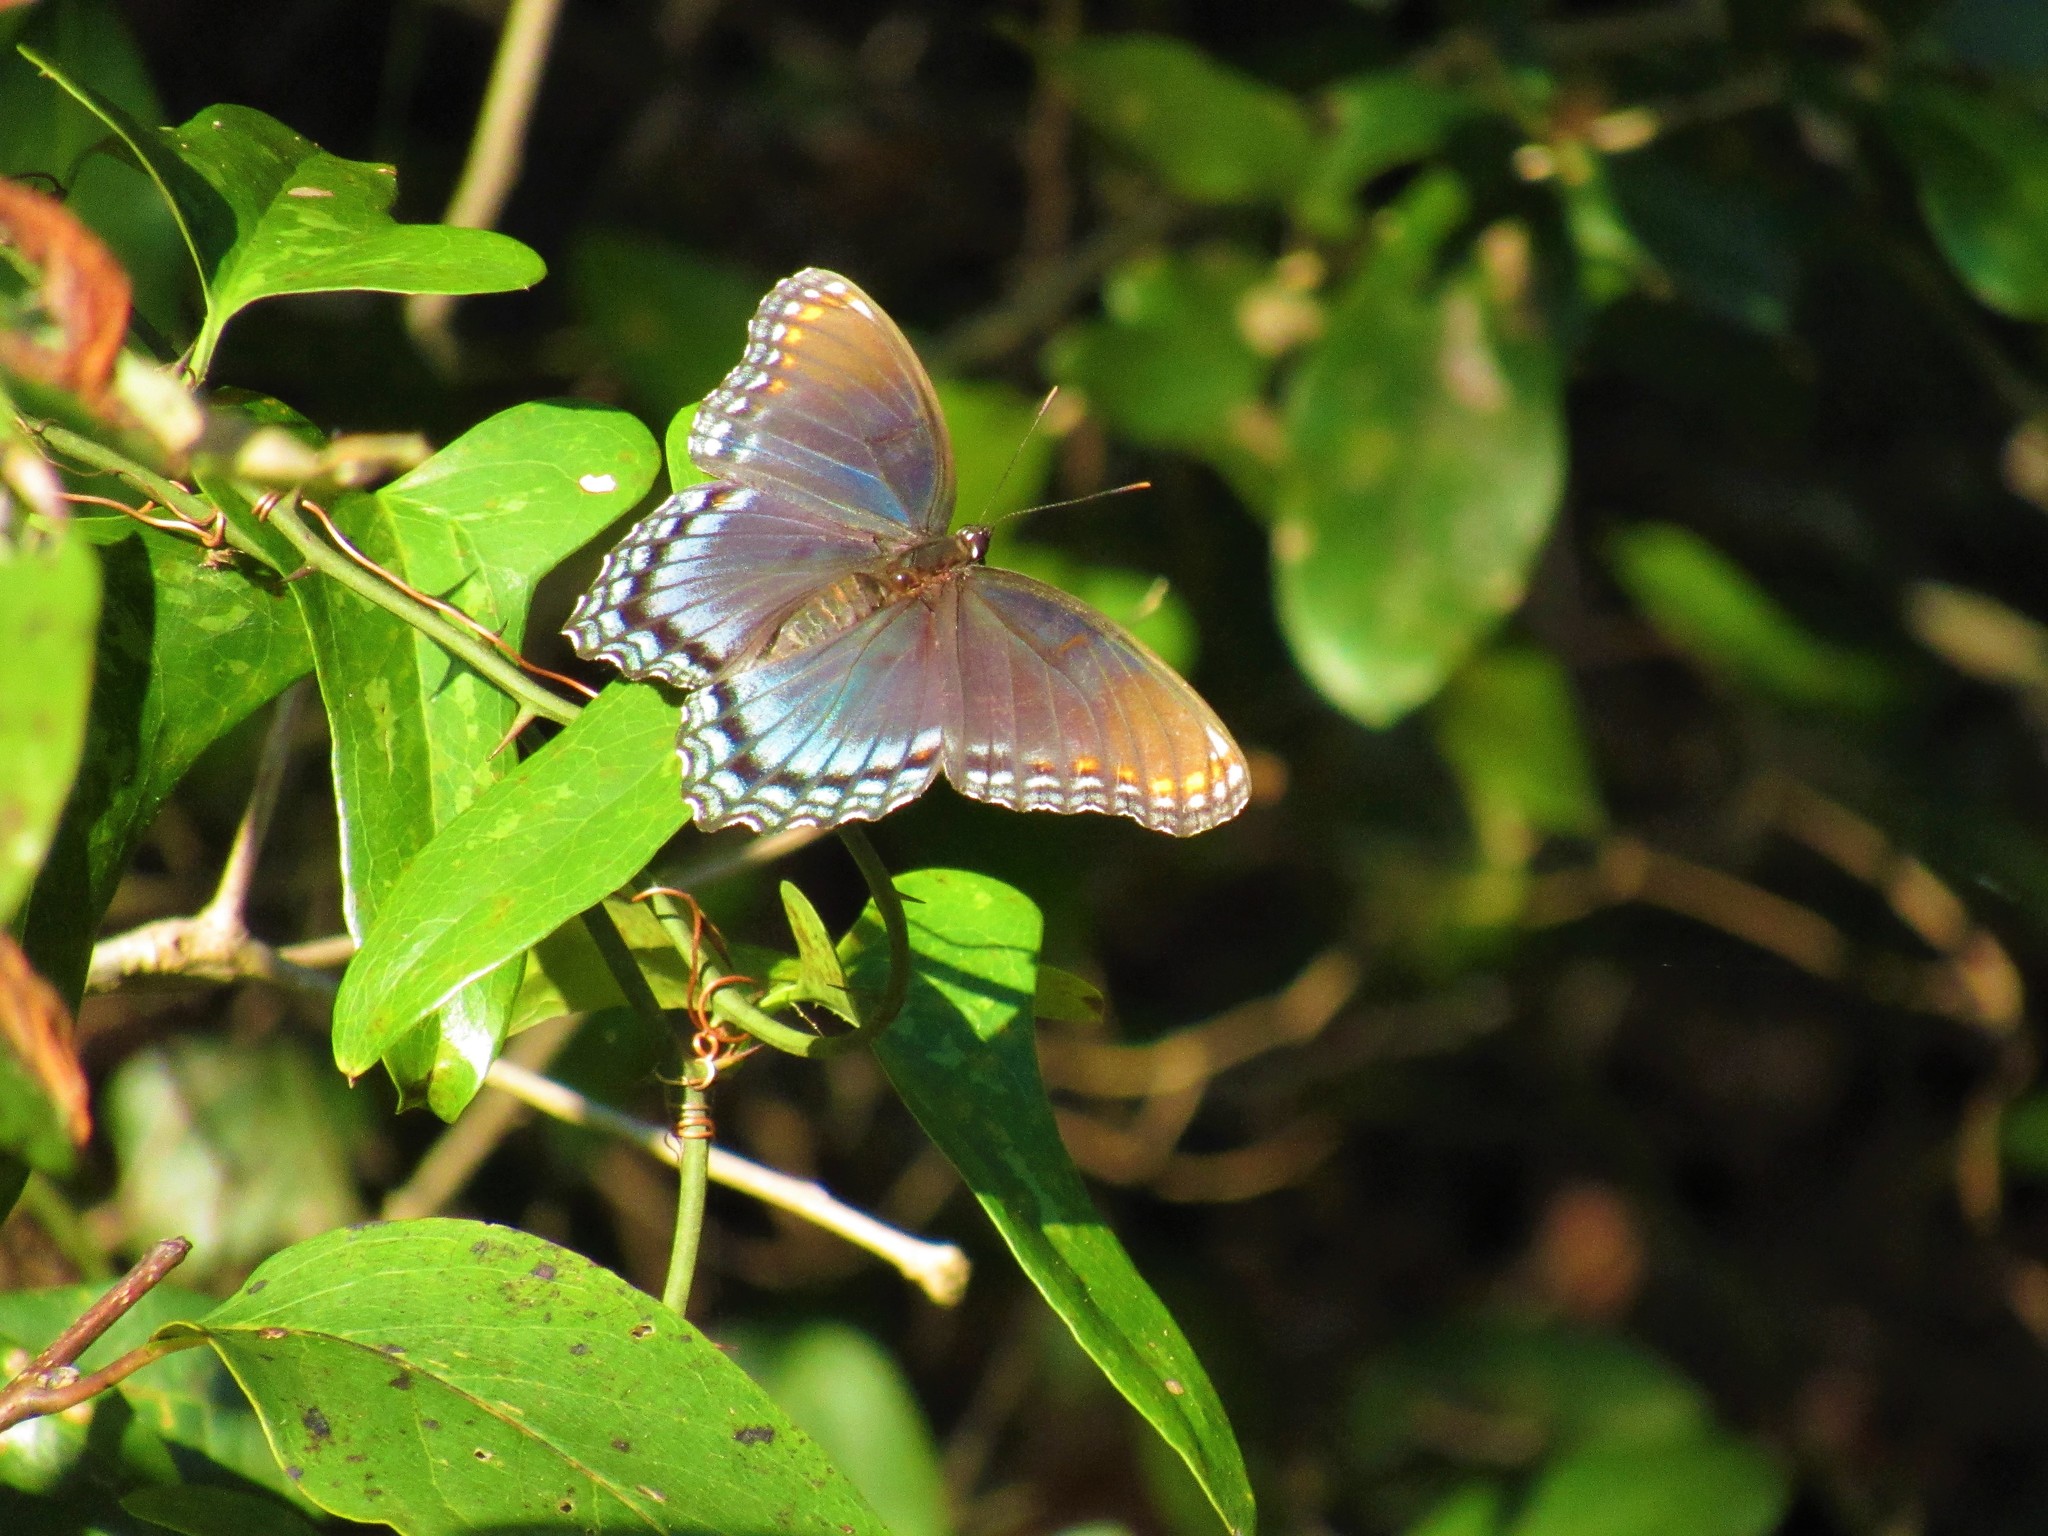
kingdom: Animalia
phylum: Arthropoda
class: Insecta
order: Lepidoptera
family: Nymphalidae
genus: Limenitis
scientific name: Limenitis astyanax
